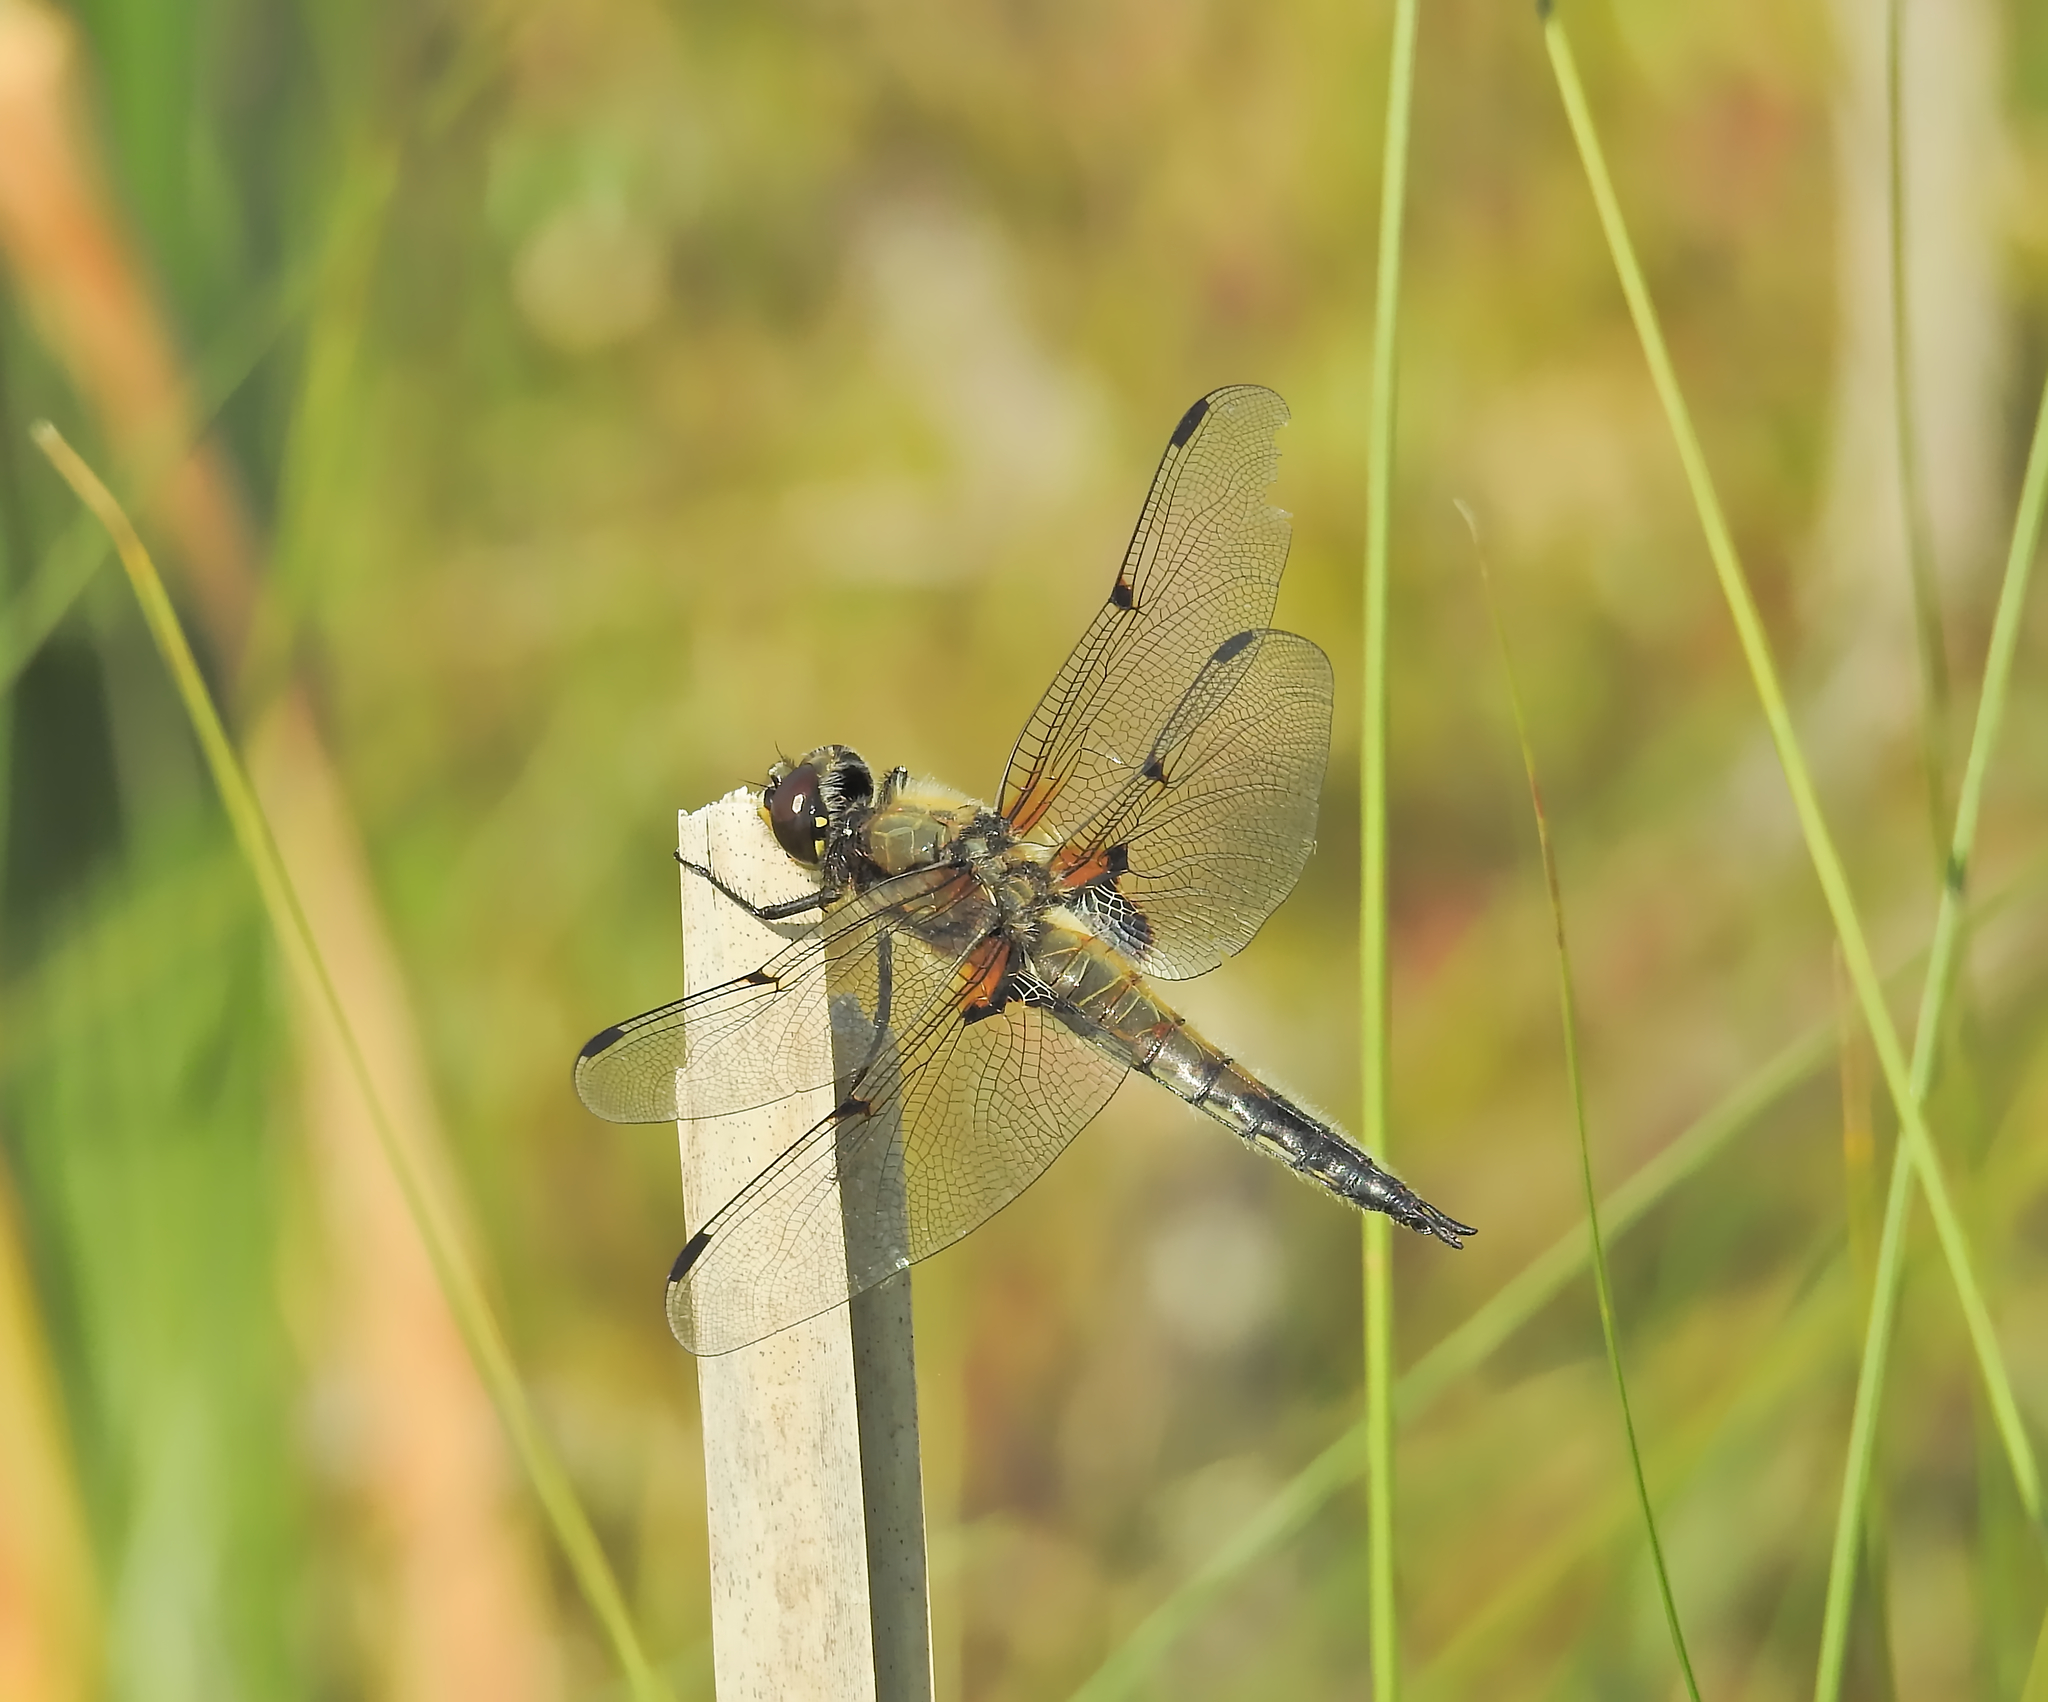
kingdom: Animalia
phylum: Arthropoda
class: Insecta
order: Odonata
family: Libellulidae
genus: Libellula
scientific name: Libellula quadrimaculata
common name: Four-spotted chaser
